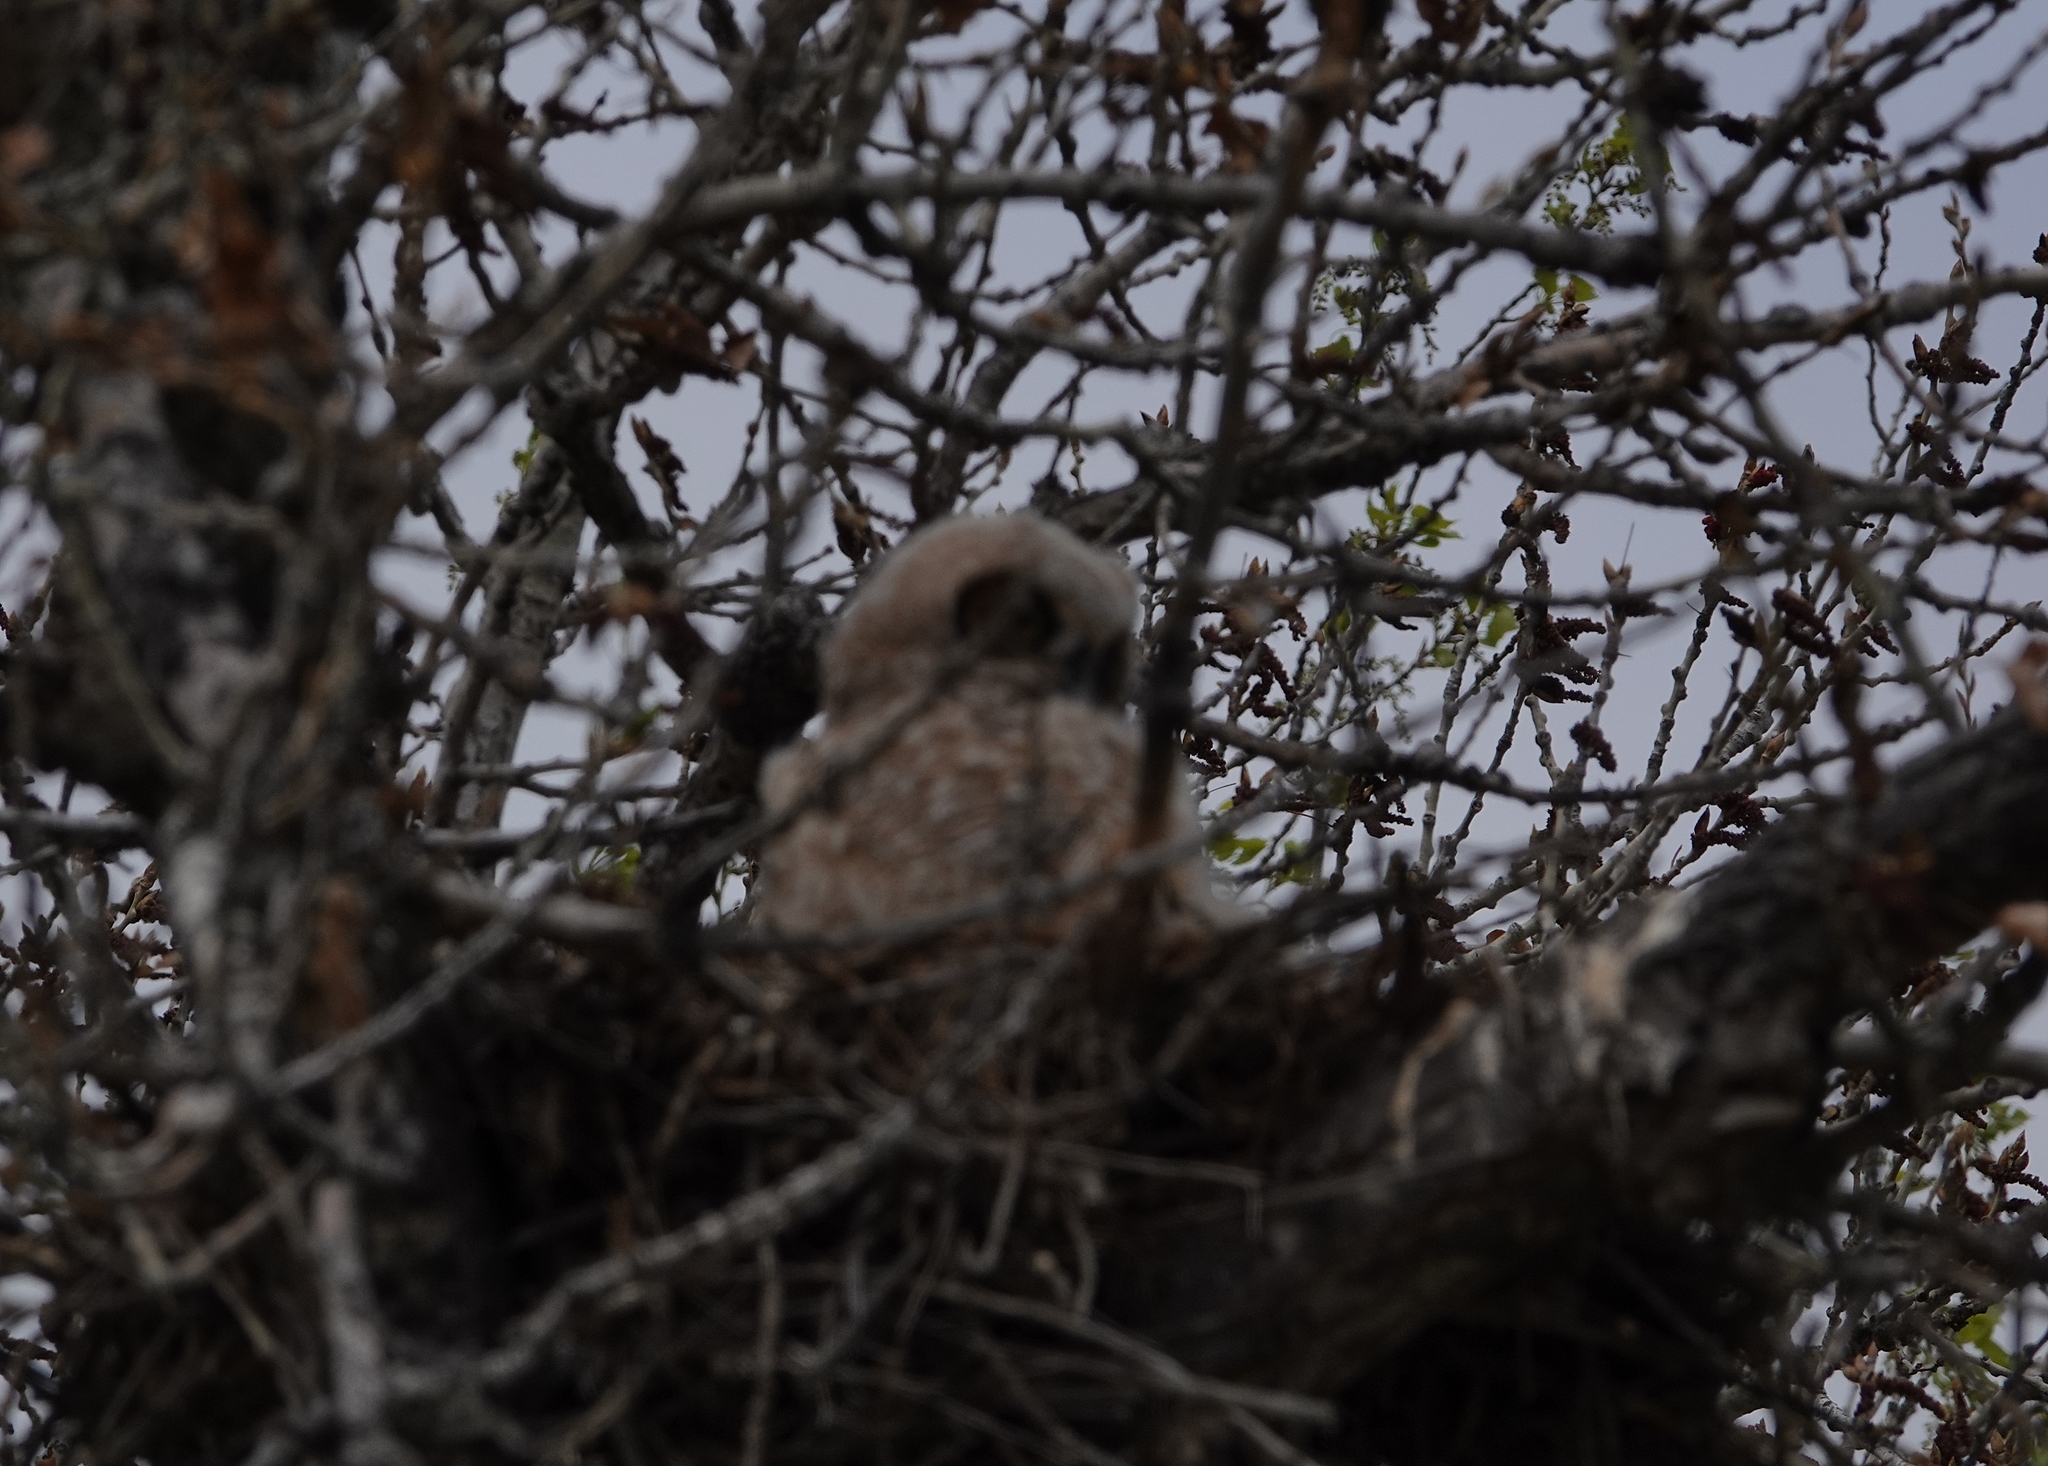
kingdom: Animalia
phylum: Chordata
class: Aves
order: Strigiformes
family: Strigidae
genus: Bubo
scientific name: Bubo virginianus
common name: Great horned owl
